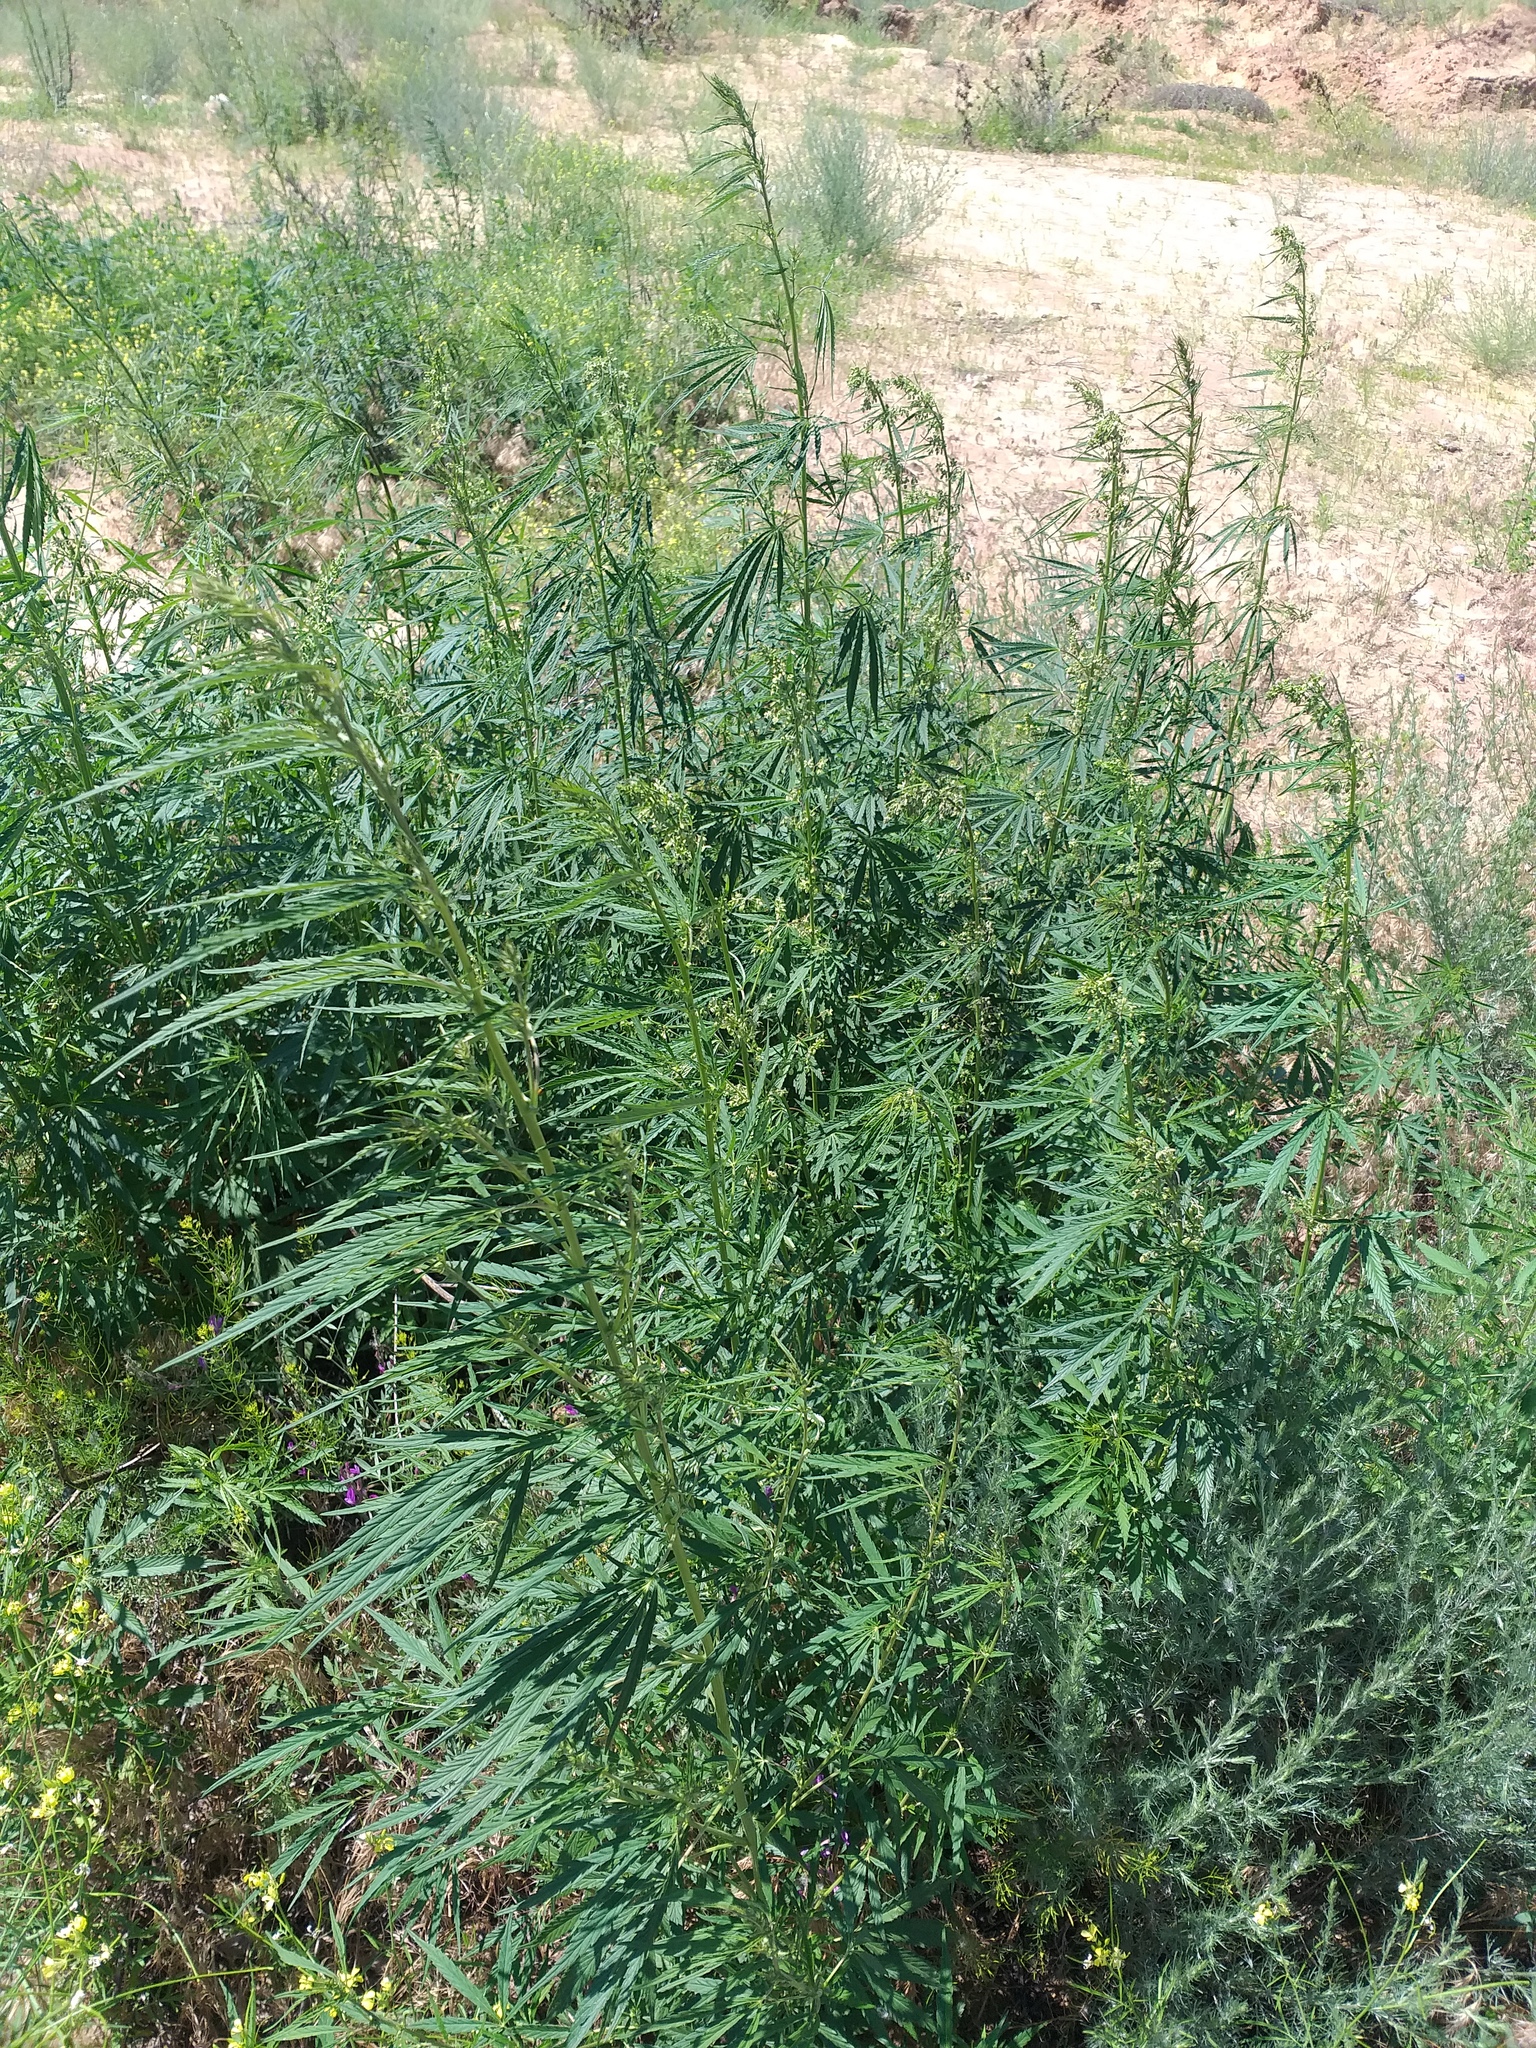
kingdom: Plantae
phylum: Tracheophyta
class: Magnoliopsida
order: Rosales
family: Cannabaceae
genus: Cannabis
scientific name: Cannabis sativa
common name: Hemp
